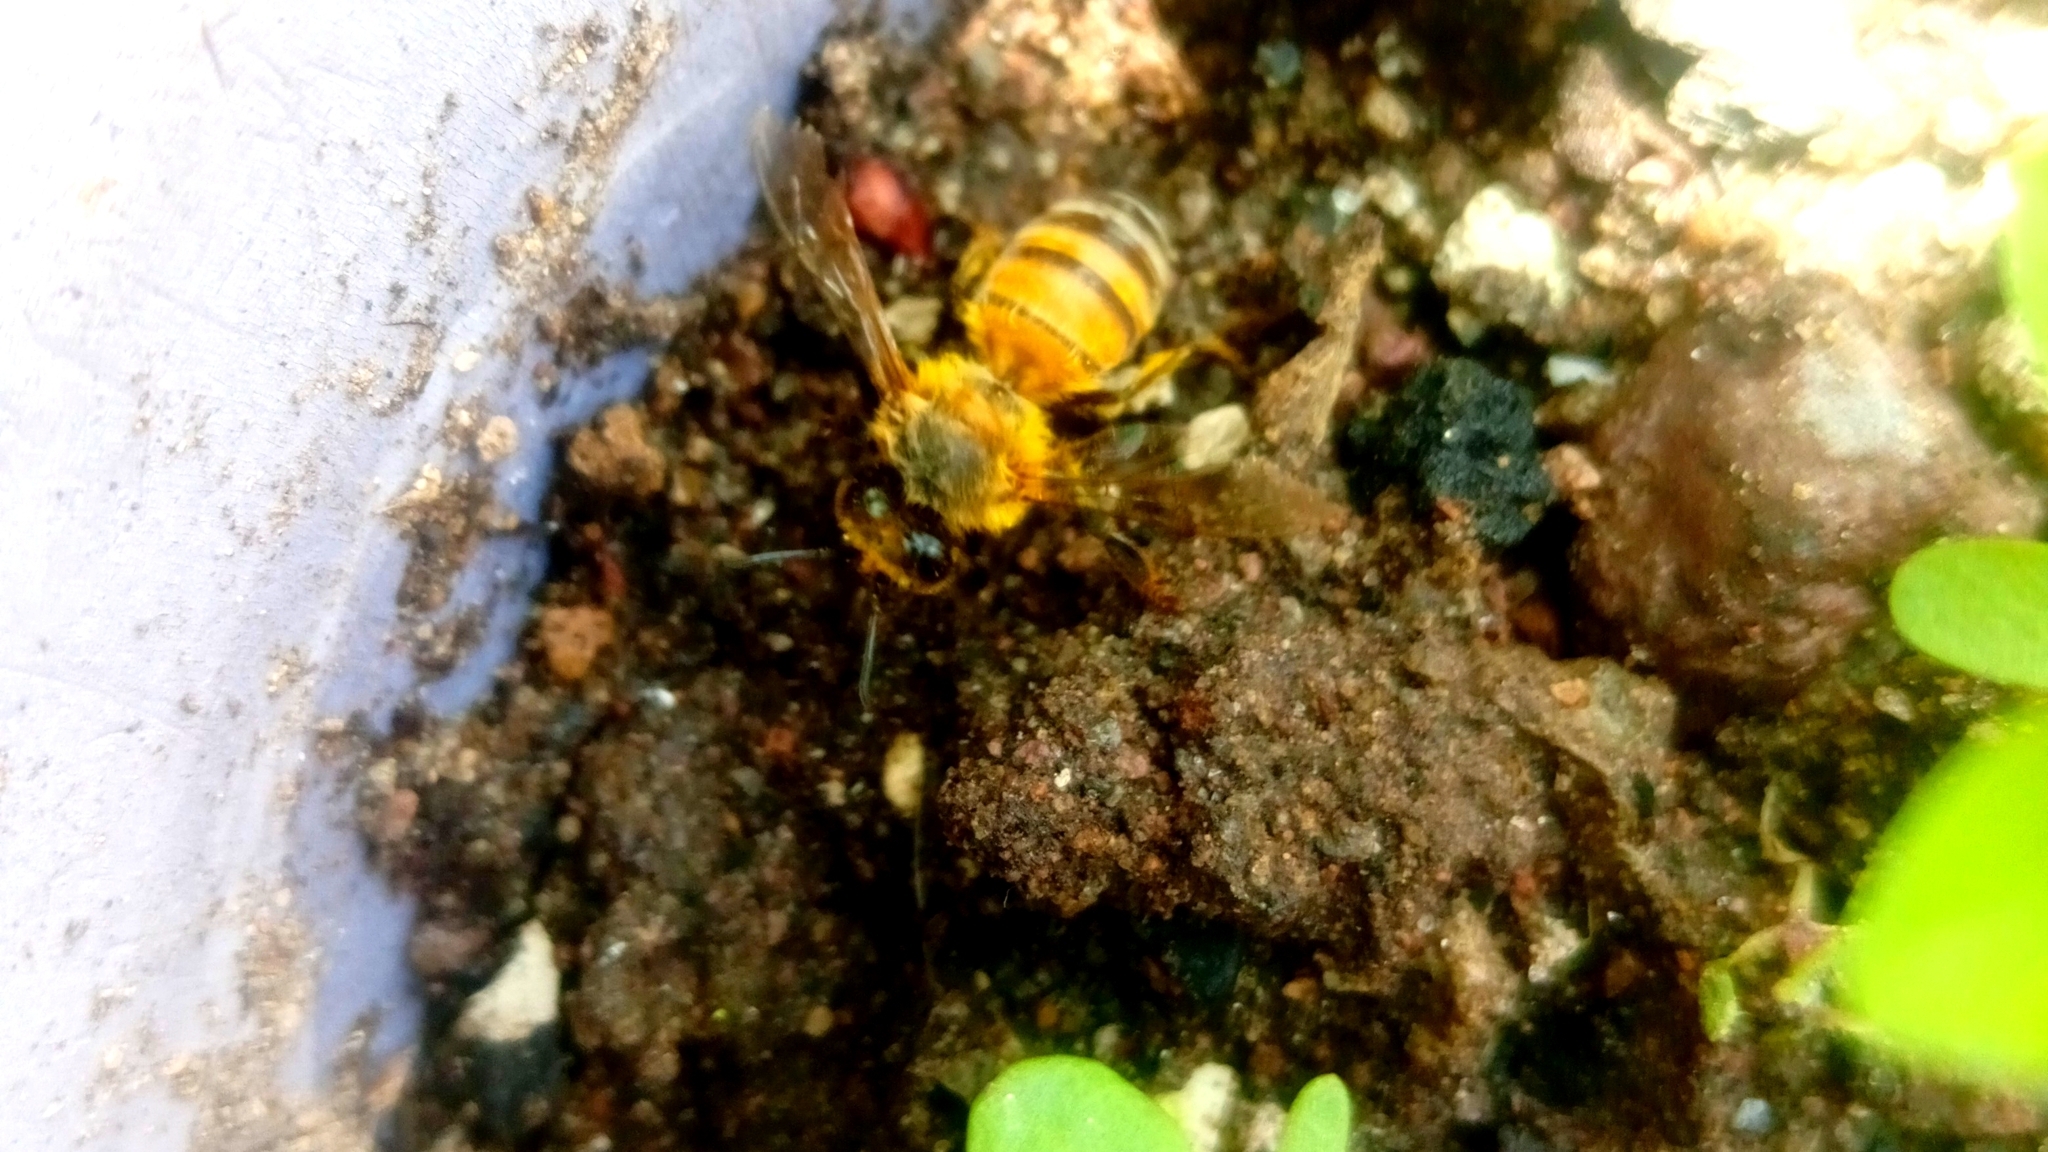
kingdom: Animalia
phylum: Arthropoda
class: Insecta
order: Hymenoptera
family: Apidae
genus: Apis
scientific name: Apis mellifera
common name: Honey bee
